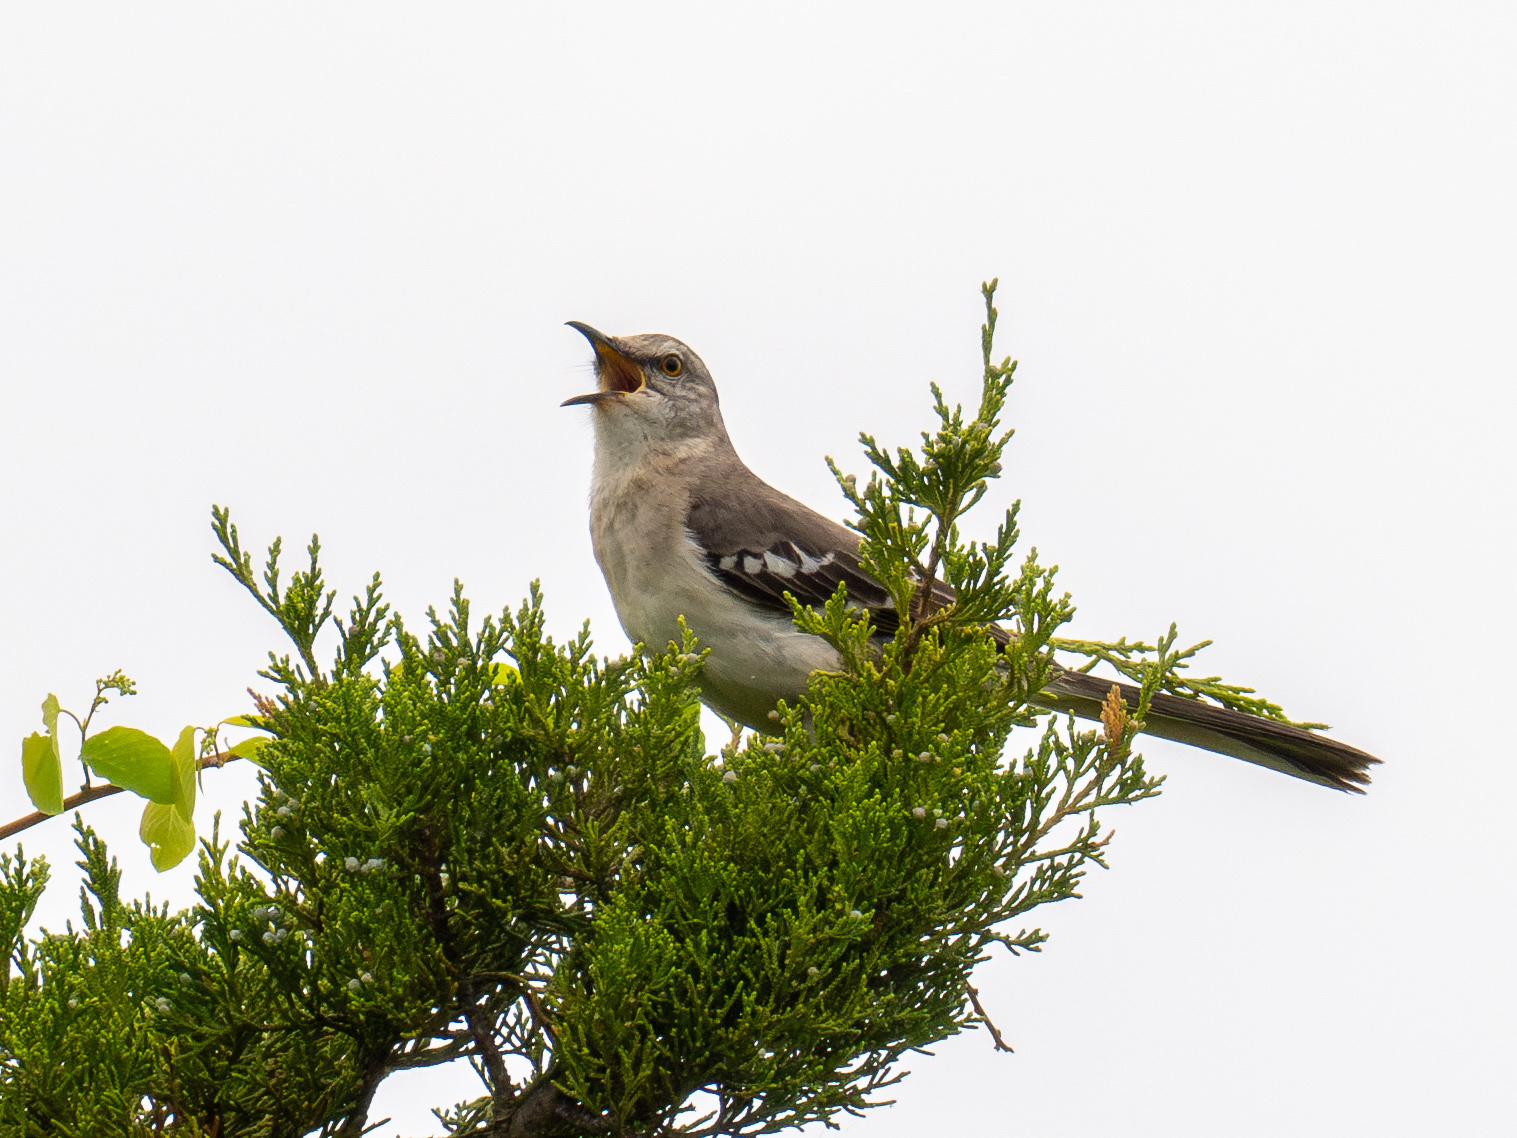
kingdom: Animalia
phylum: Chordata
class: Aves
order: Passeriformes
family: Mimidae
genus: Mimus
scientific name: Mimus polyglottos
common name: Northern mockingbird
